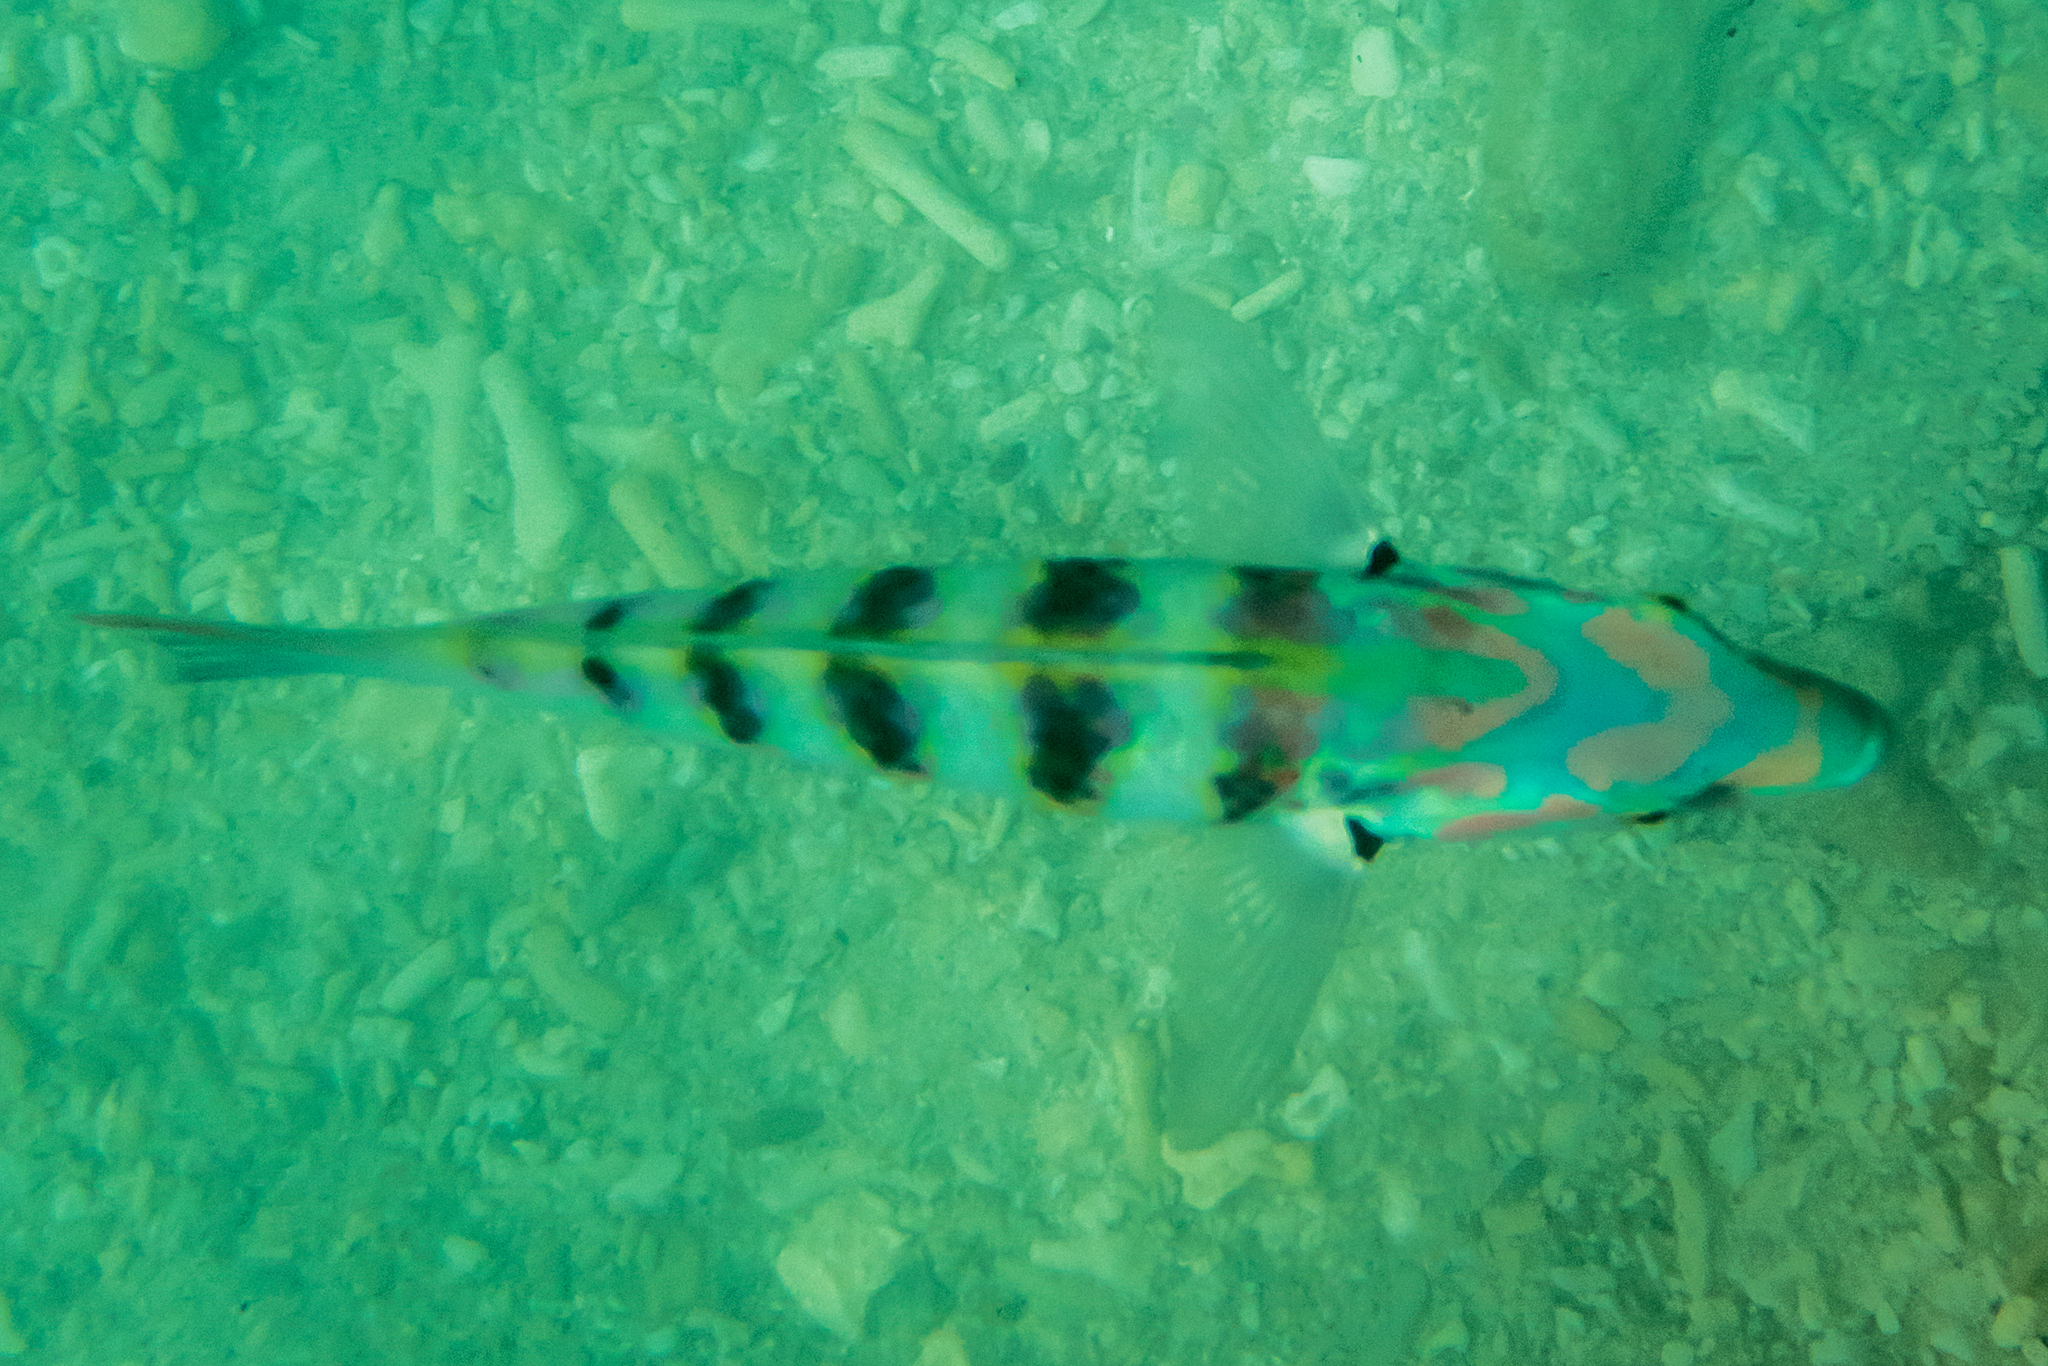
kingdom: Animalia
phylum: Chordata
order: Perciformes
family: Labridae
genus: Thalassoma
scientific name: Thalassoma hardwicke
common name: Sixbar wrasse
